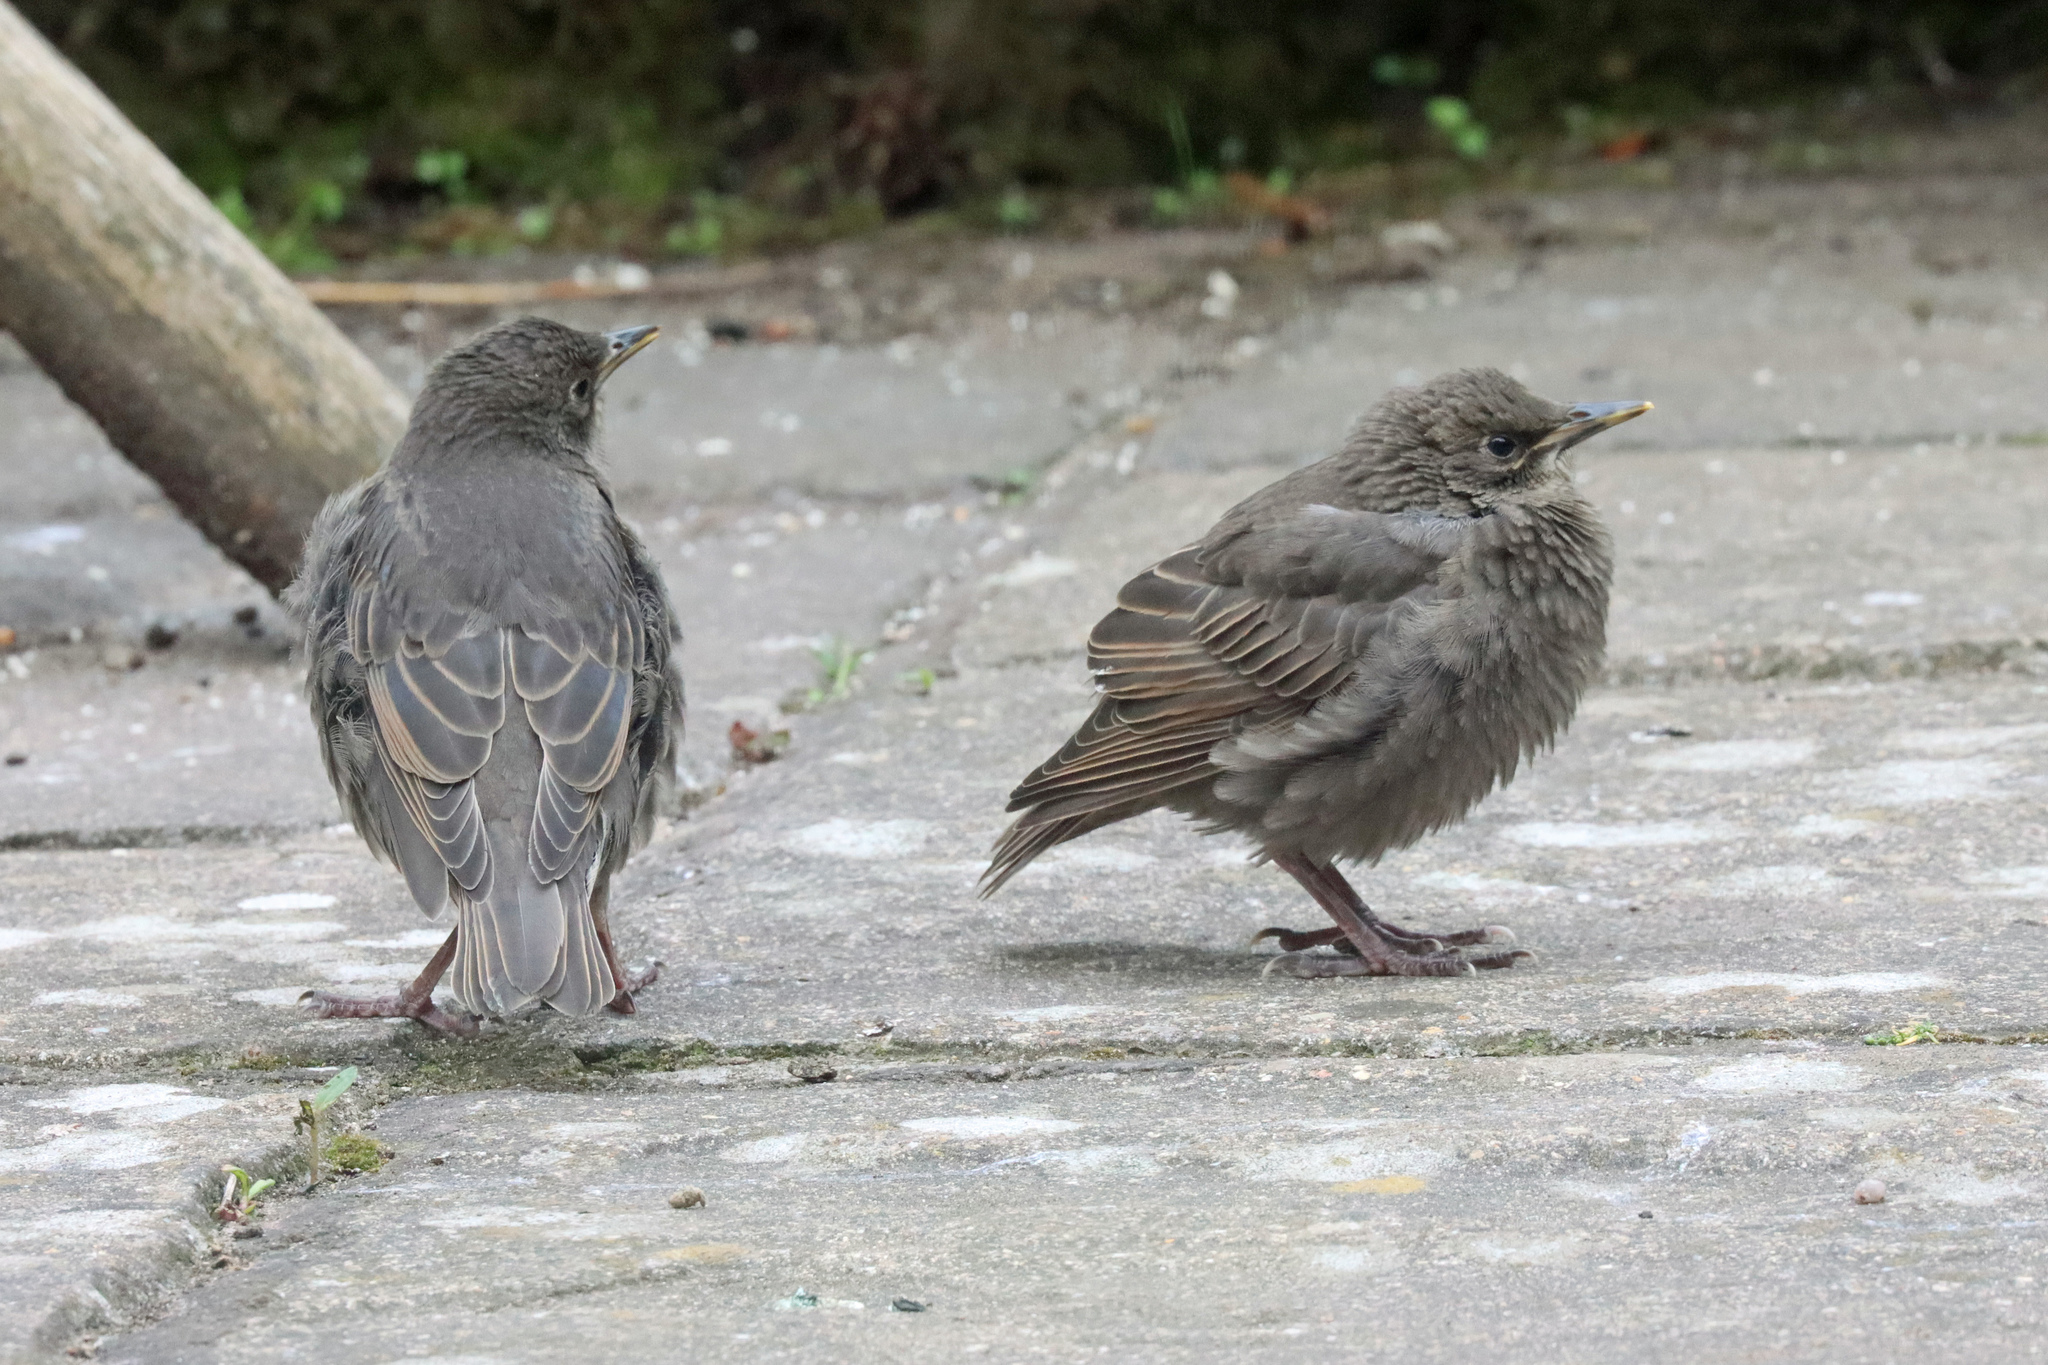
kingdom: Animalia
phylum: Chordata
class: Aves
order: Passeriformes
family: Sturnidae
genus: Sturnus
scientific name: Sturnus vulgaris
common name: Common starling
